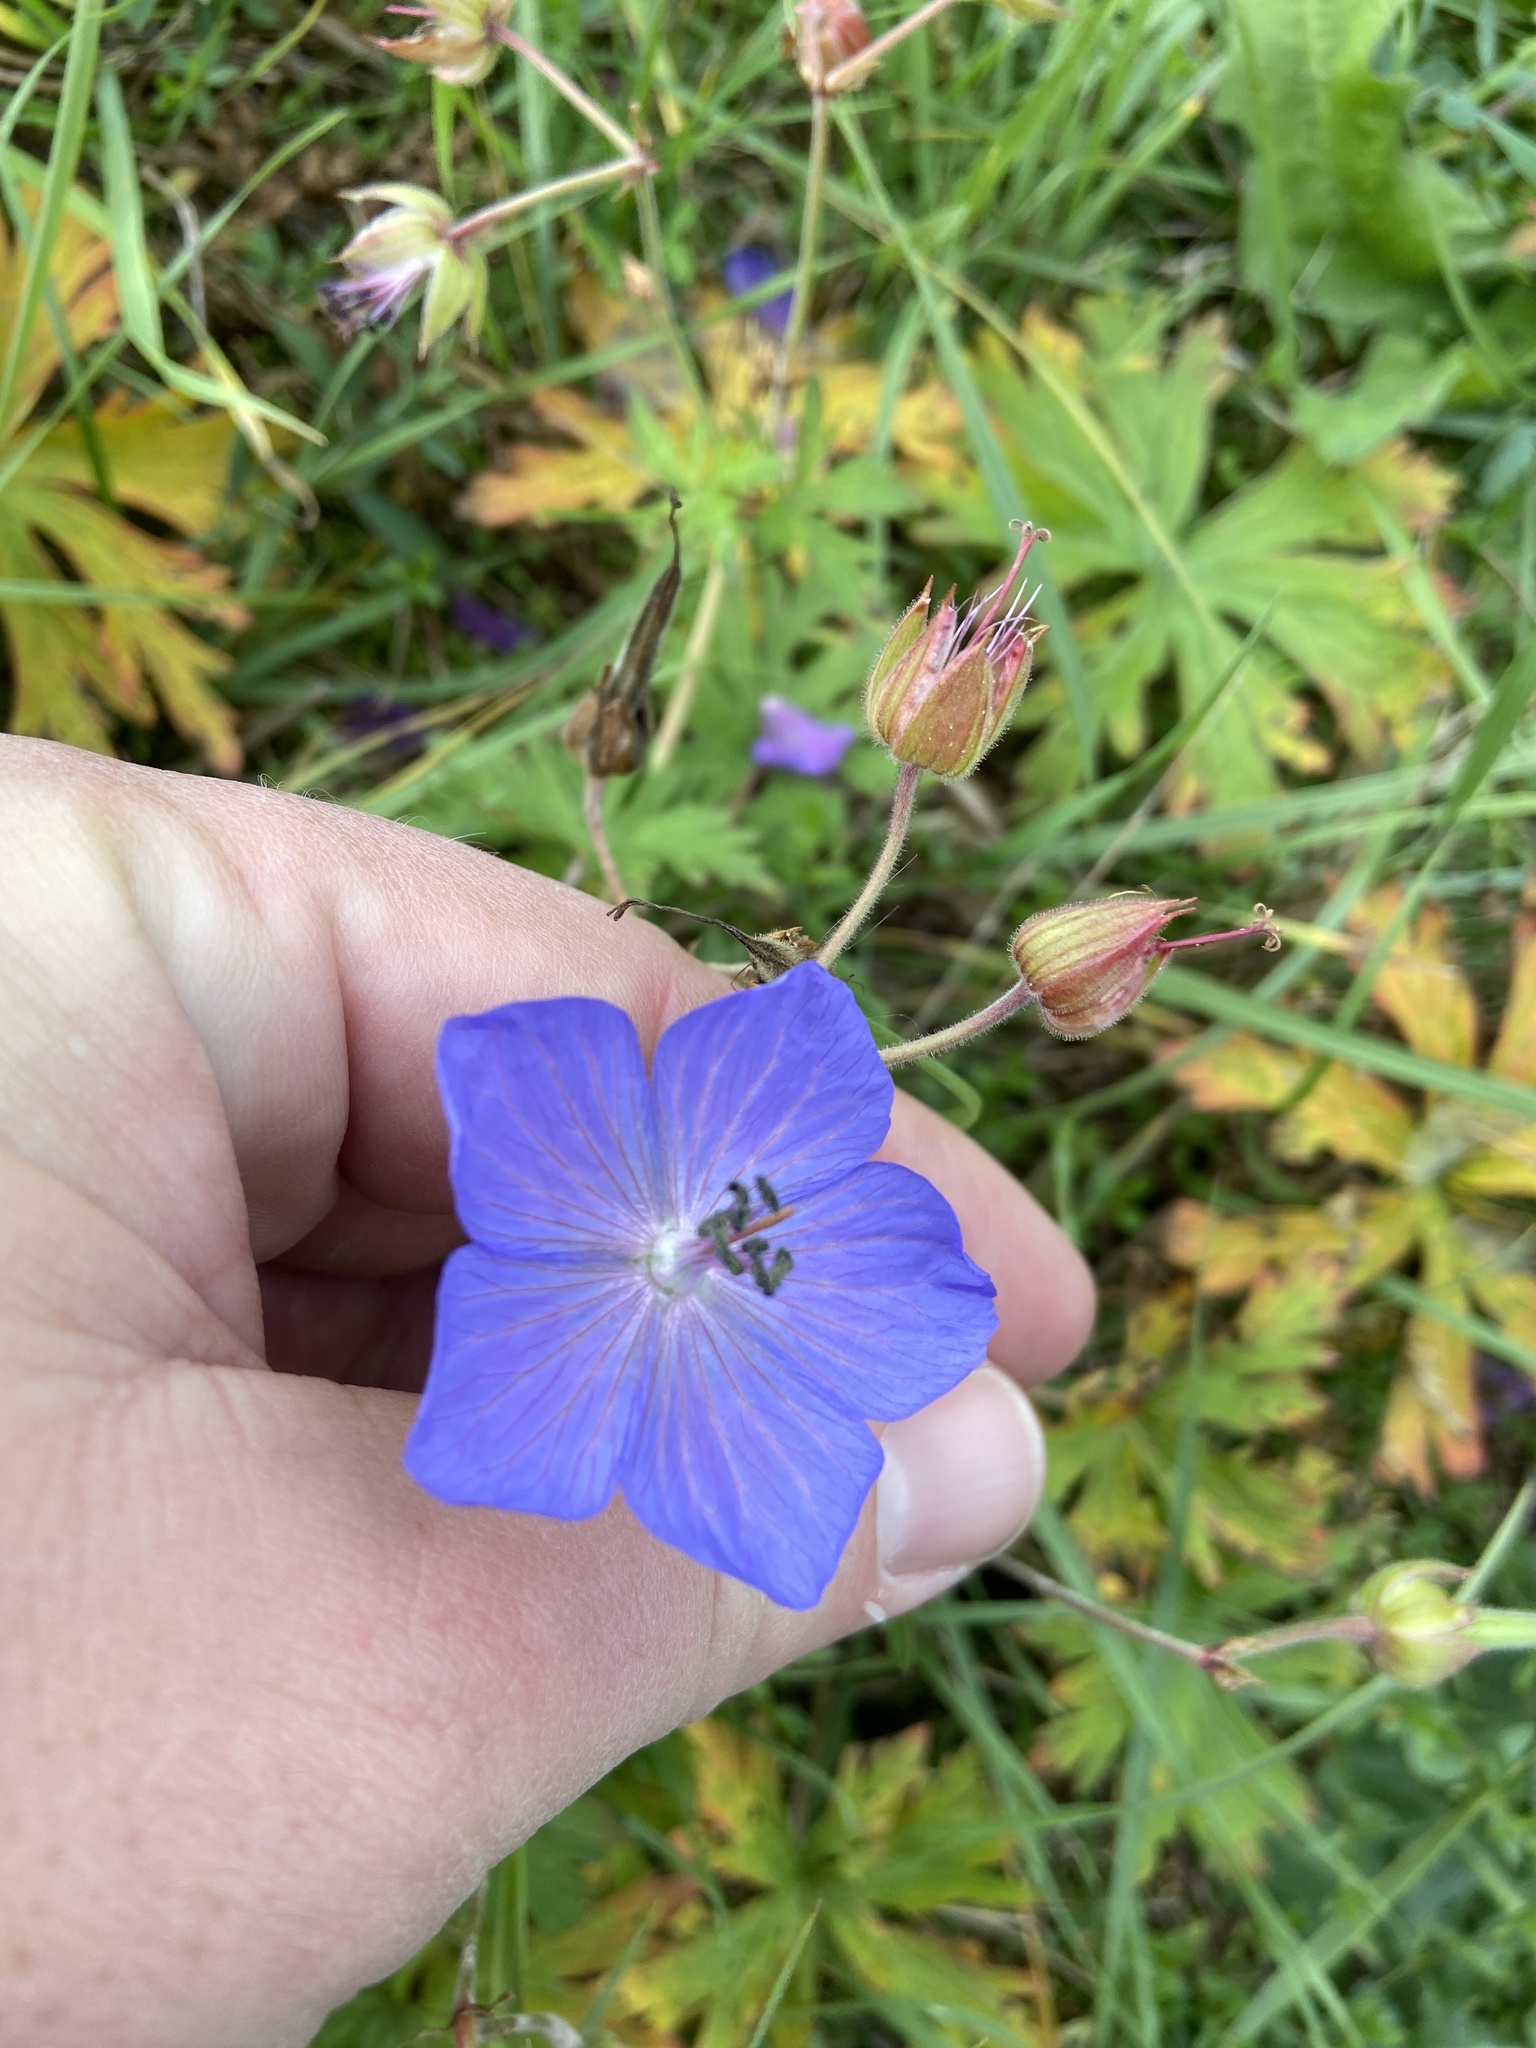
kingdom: Plantae
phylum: Tracheophyta
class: Magnoliopsida
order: Geraniales
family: Geraniaceae
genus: Geranium
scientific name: Geranium pratense
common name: Meadow crane's-bill
